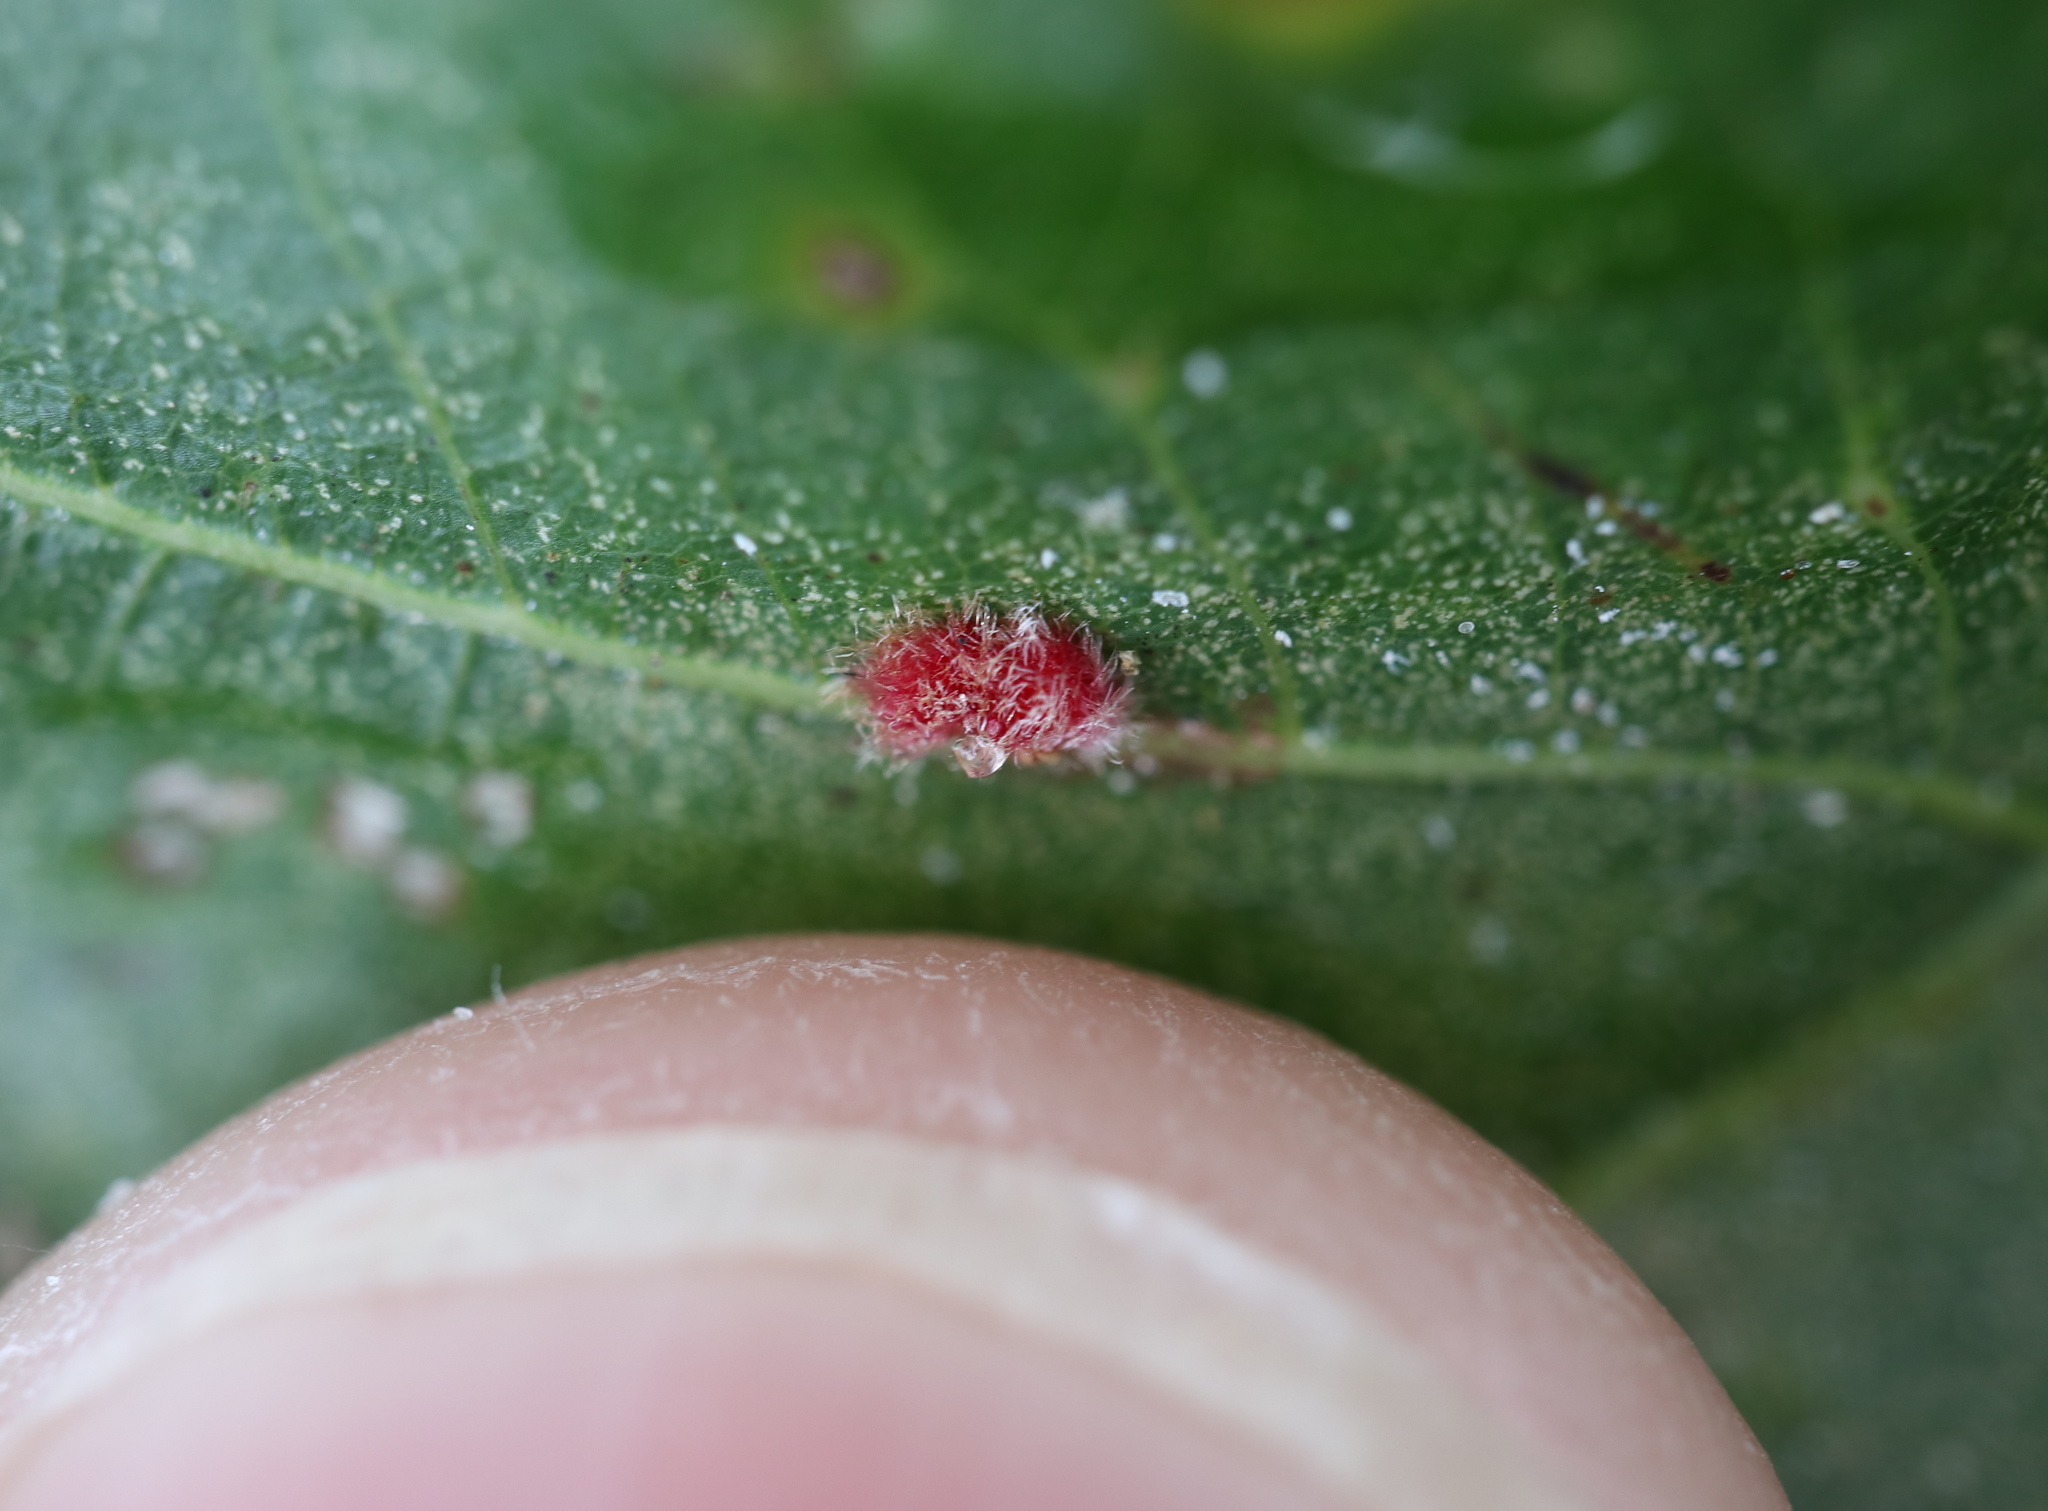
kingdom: Animalia
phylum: Arthropoda
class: Insecta
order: Hymenoptera
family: Cynipidae
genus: Callirhytis
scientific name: Callirhytis
